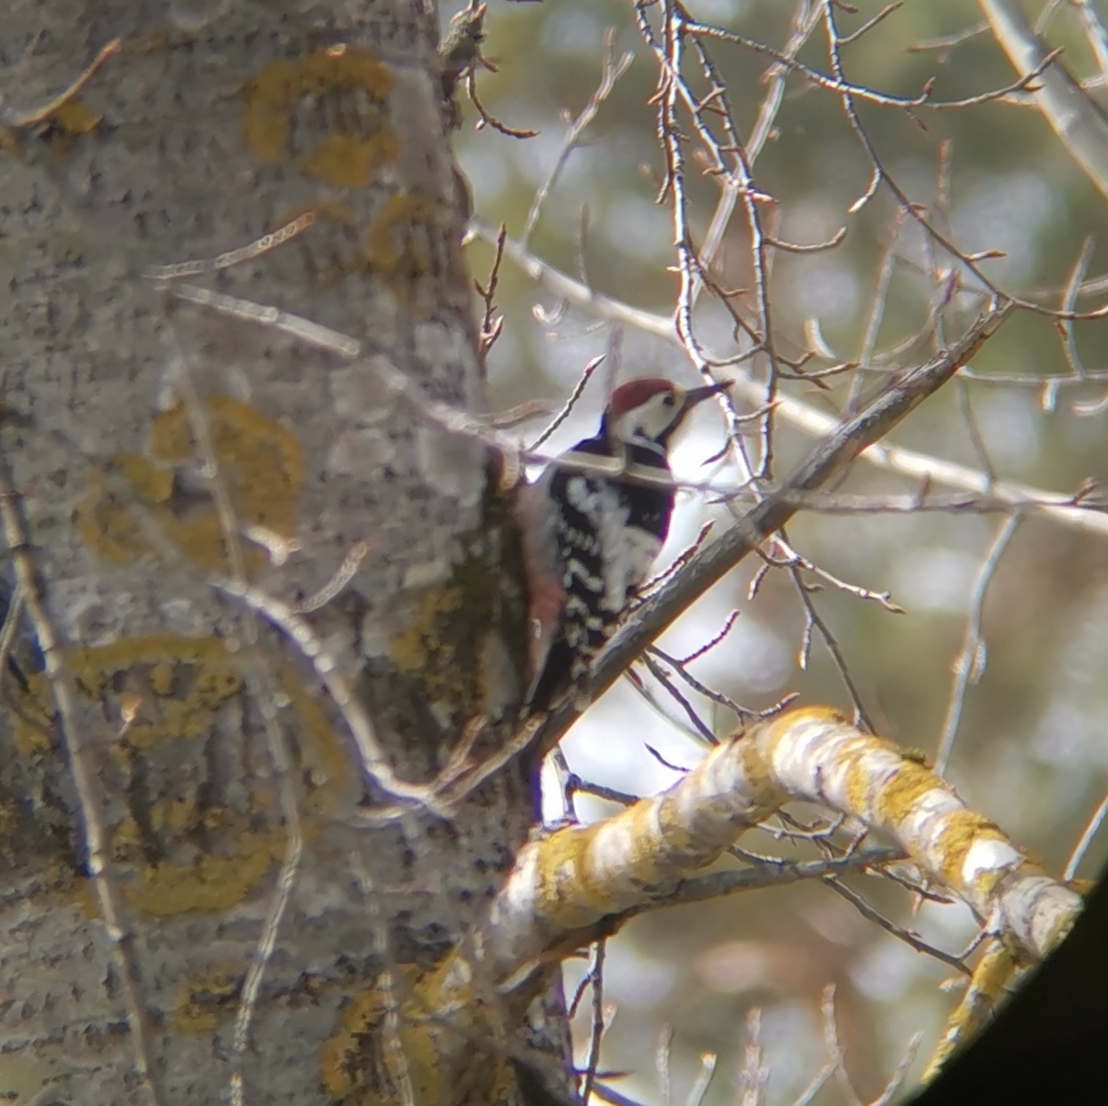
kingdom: Animalia
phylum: Chordata
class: Aves
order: Piciformes
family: Picidae
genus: Dendrocopos
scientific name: Dendrocopos leucotos
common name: White-backed woodpecker
